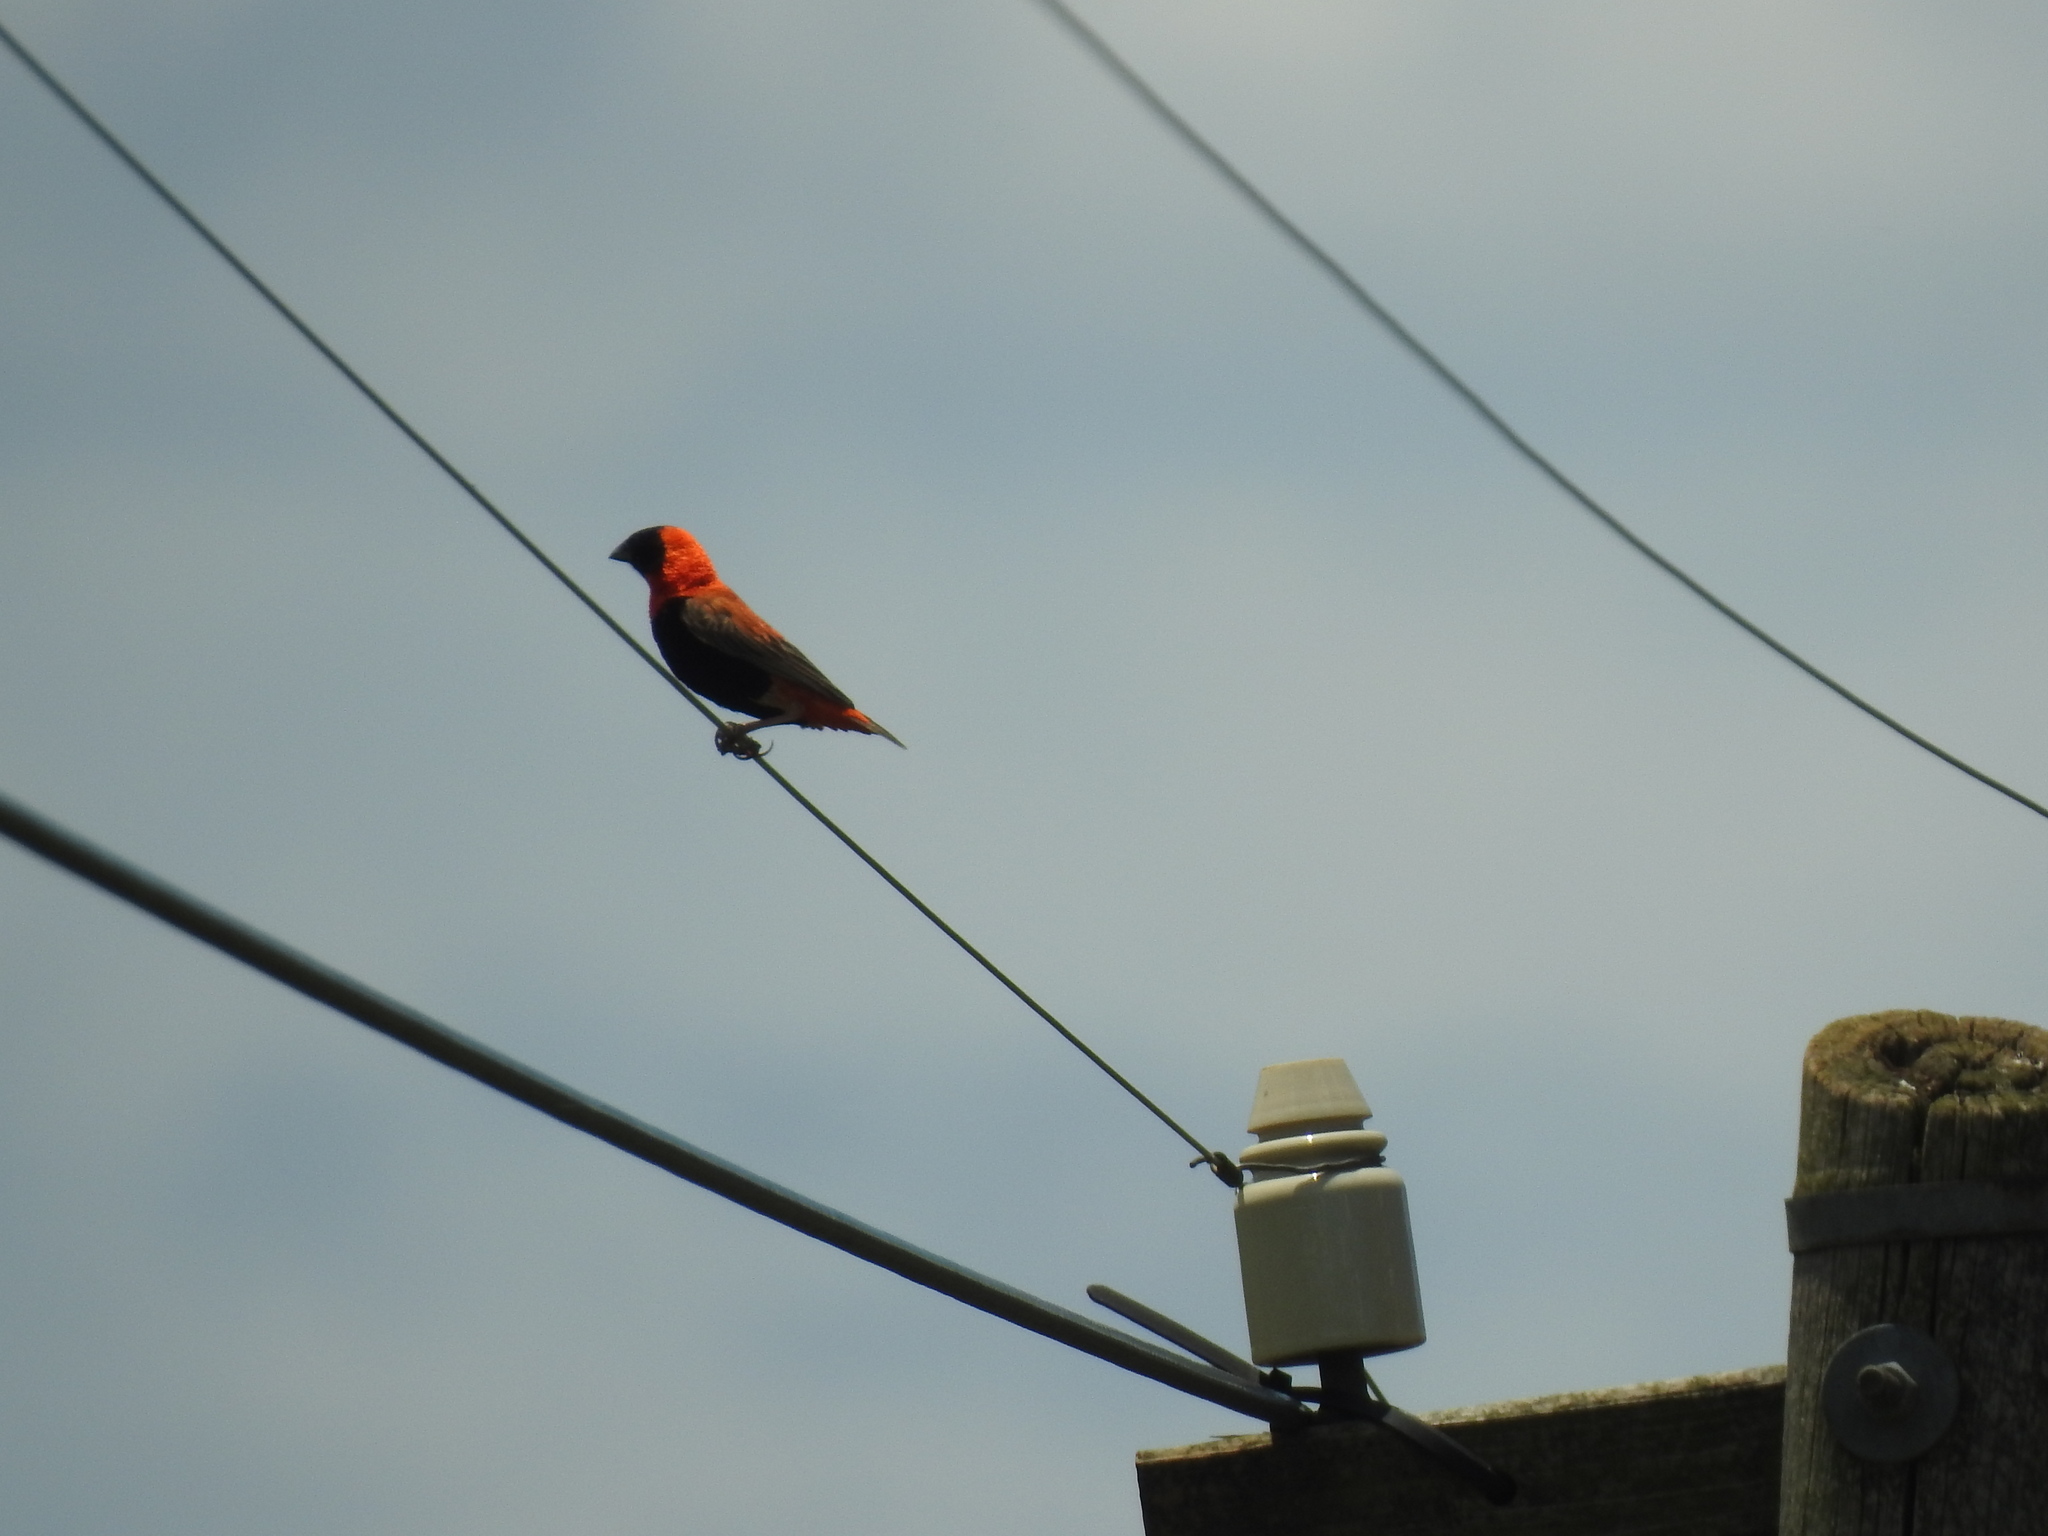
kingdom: Animalia
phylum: Chordata
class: Aves
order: Passeriformes
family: Ploceidae
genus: Euplectes
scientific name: Euplectes orix
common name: Southern red bishop
